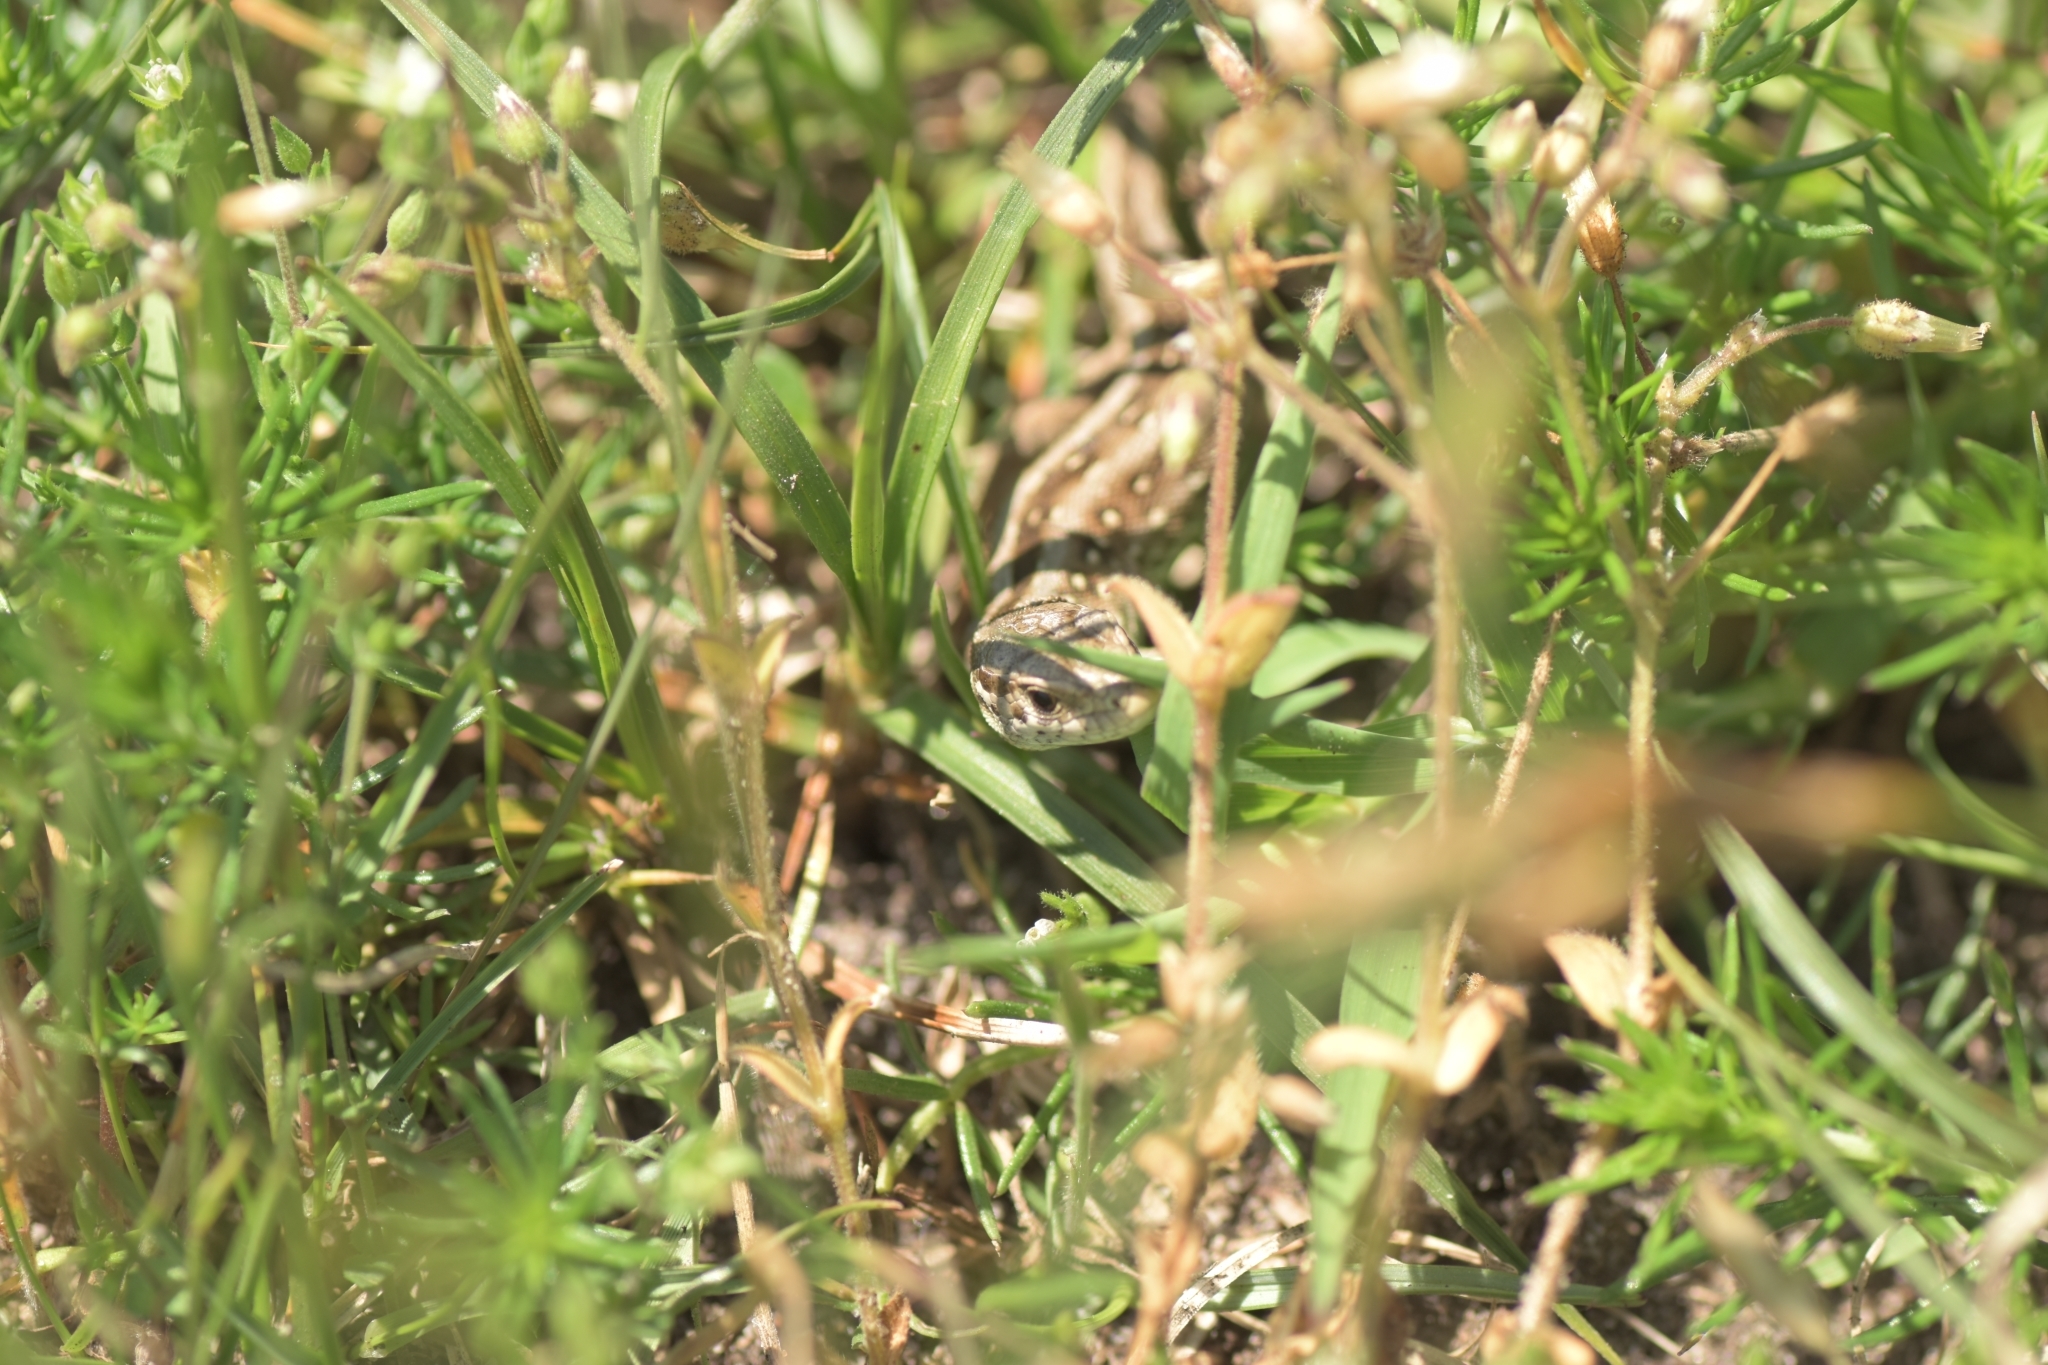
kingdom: Animalia
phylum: Chordata
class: Squamata
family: Lacertidae
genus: Lacerta
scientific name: Lacerta agilis
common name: Sand lizard
